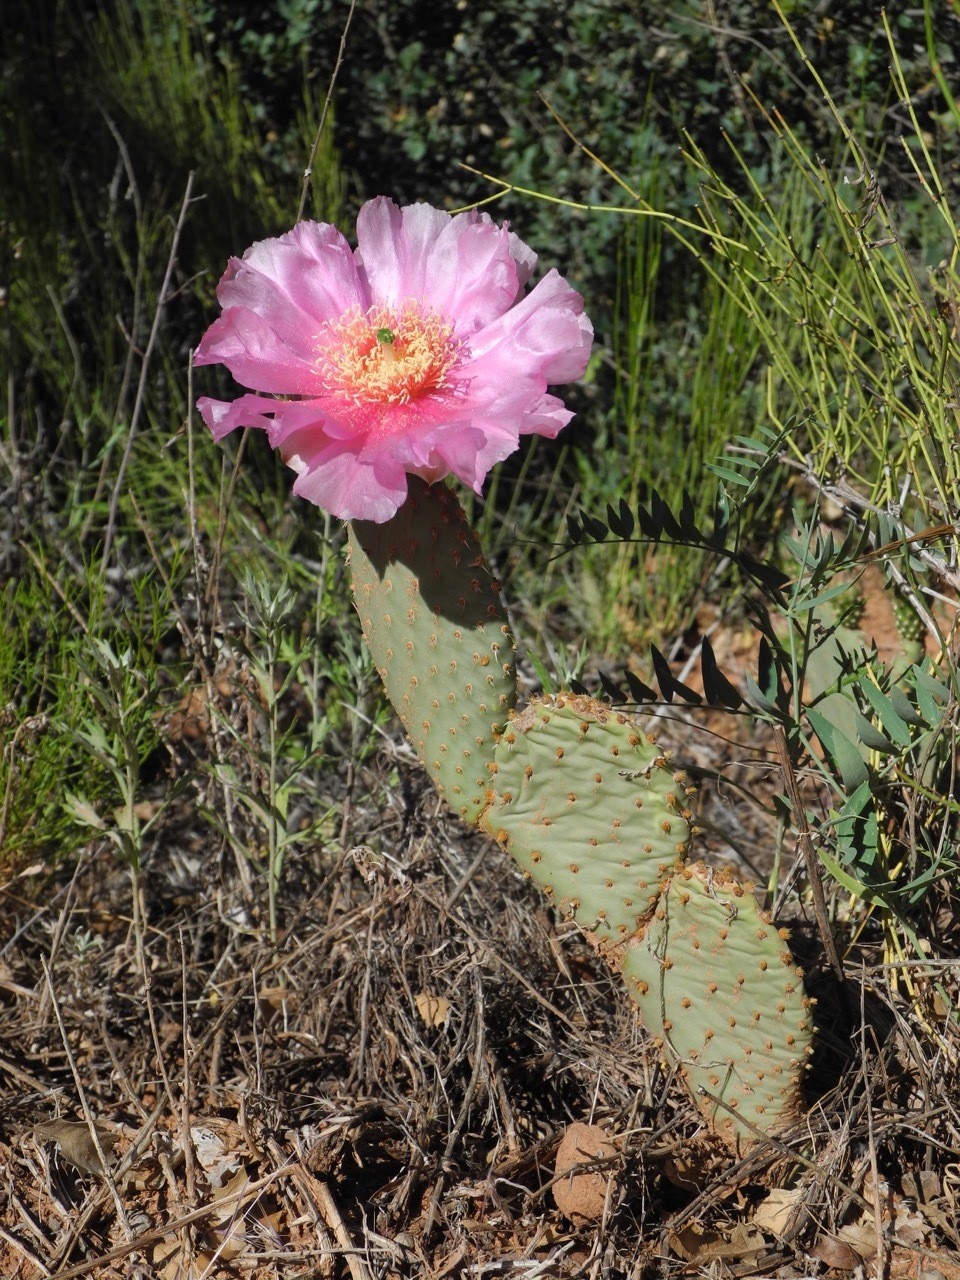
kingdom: Plantae
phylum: Tracheophyta
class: Magnoliopsida
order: Caryophyllales
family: Cactaceae
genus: Opuntia
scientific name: Opuntia aurea
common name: Golden prickly-pear
